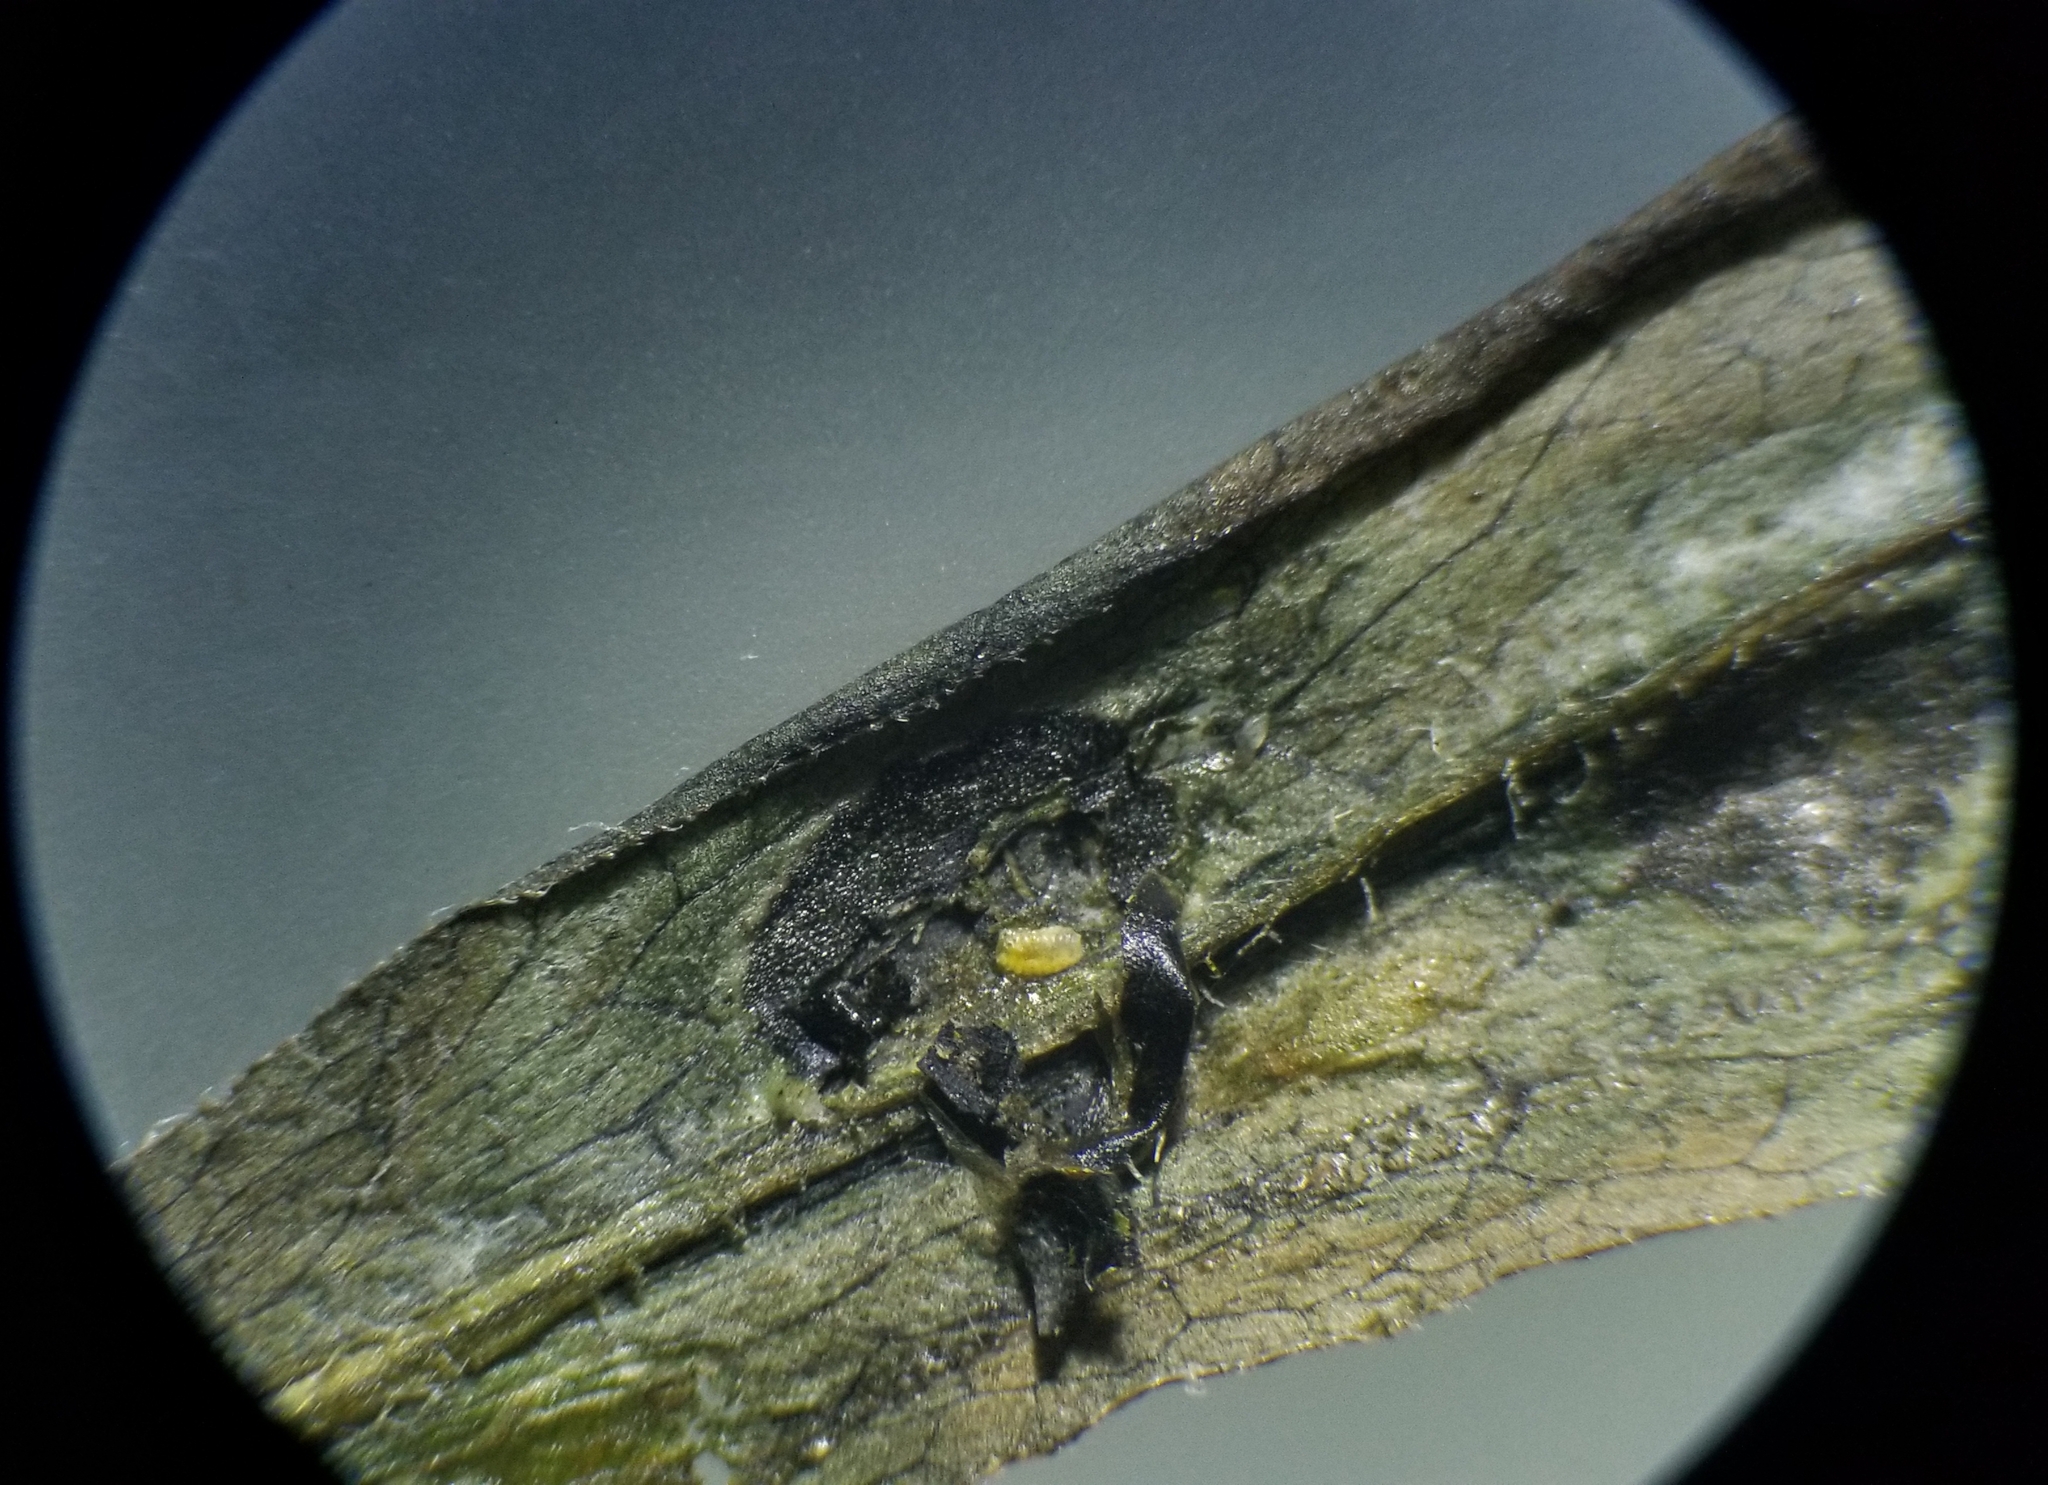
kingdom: Animalia
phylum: Arthropoda
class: Insecta
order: Diptera
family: Cecidomyiidae
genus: Asteromyia
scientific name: Asteromyia laeviana
